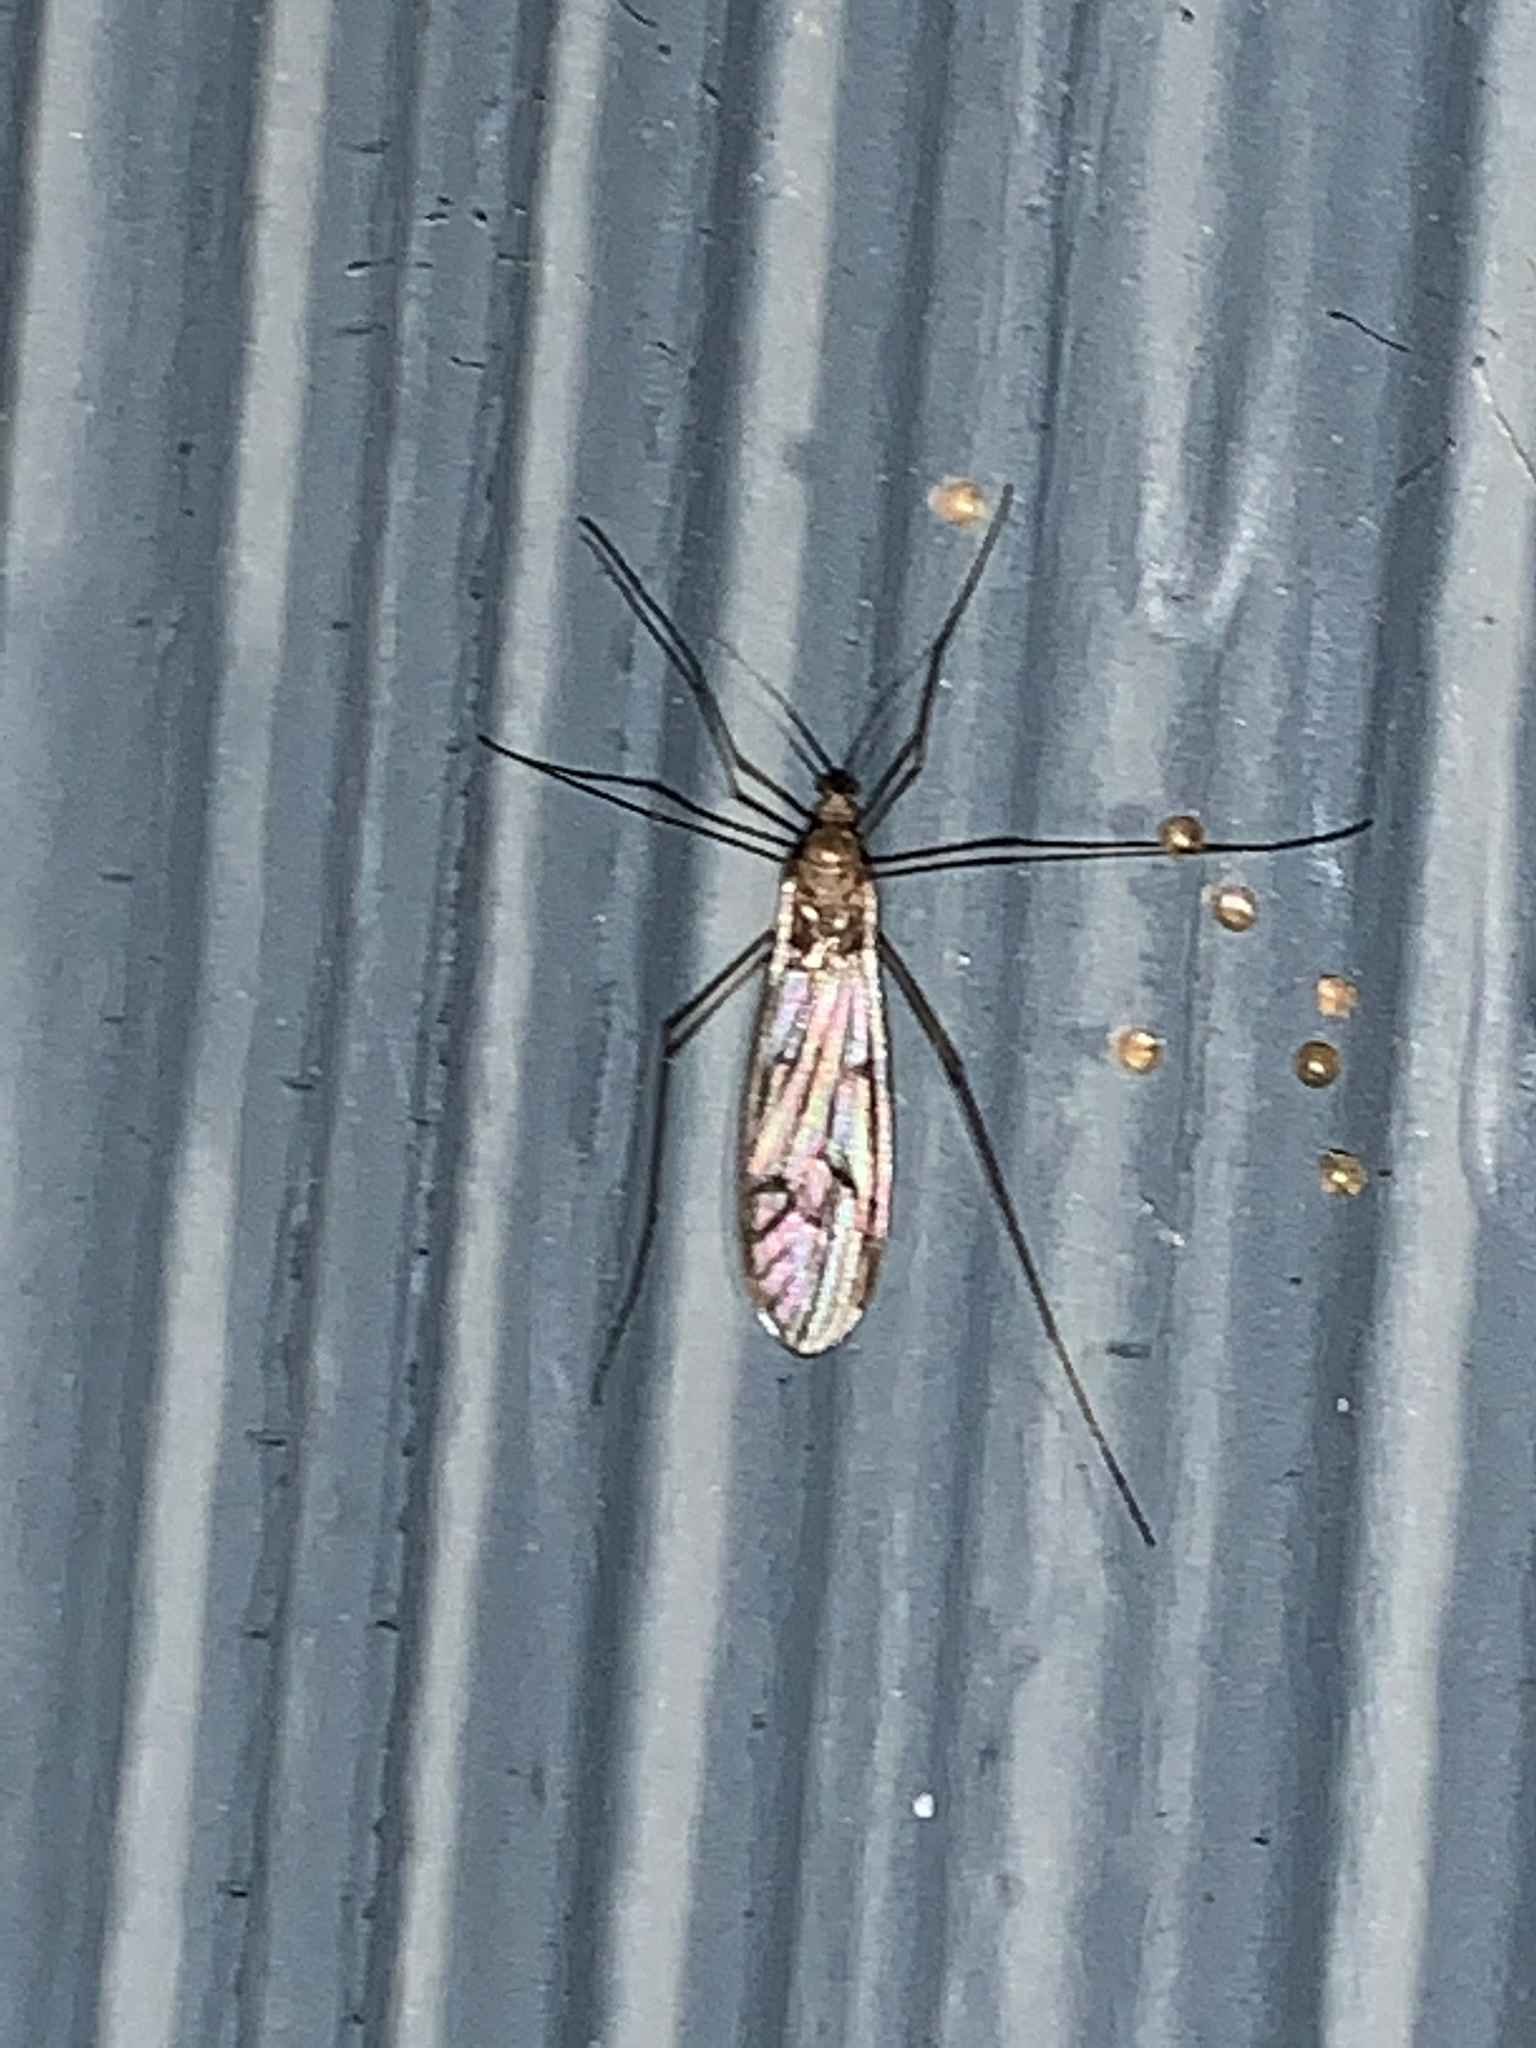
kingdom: Animalia
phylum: Arthropoda
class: Insecta
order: Diptera
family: Limoniidae
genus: Limonia
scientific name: Limonia
